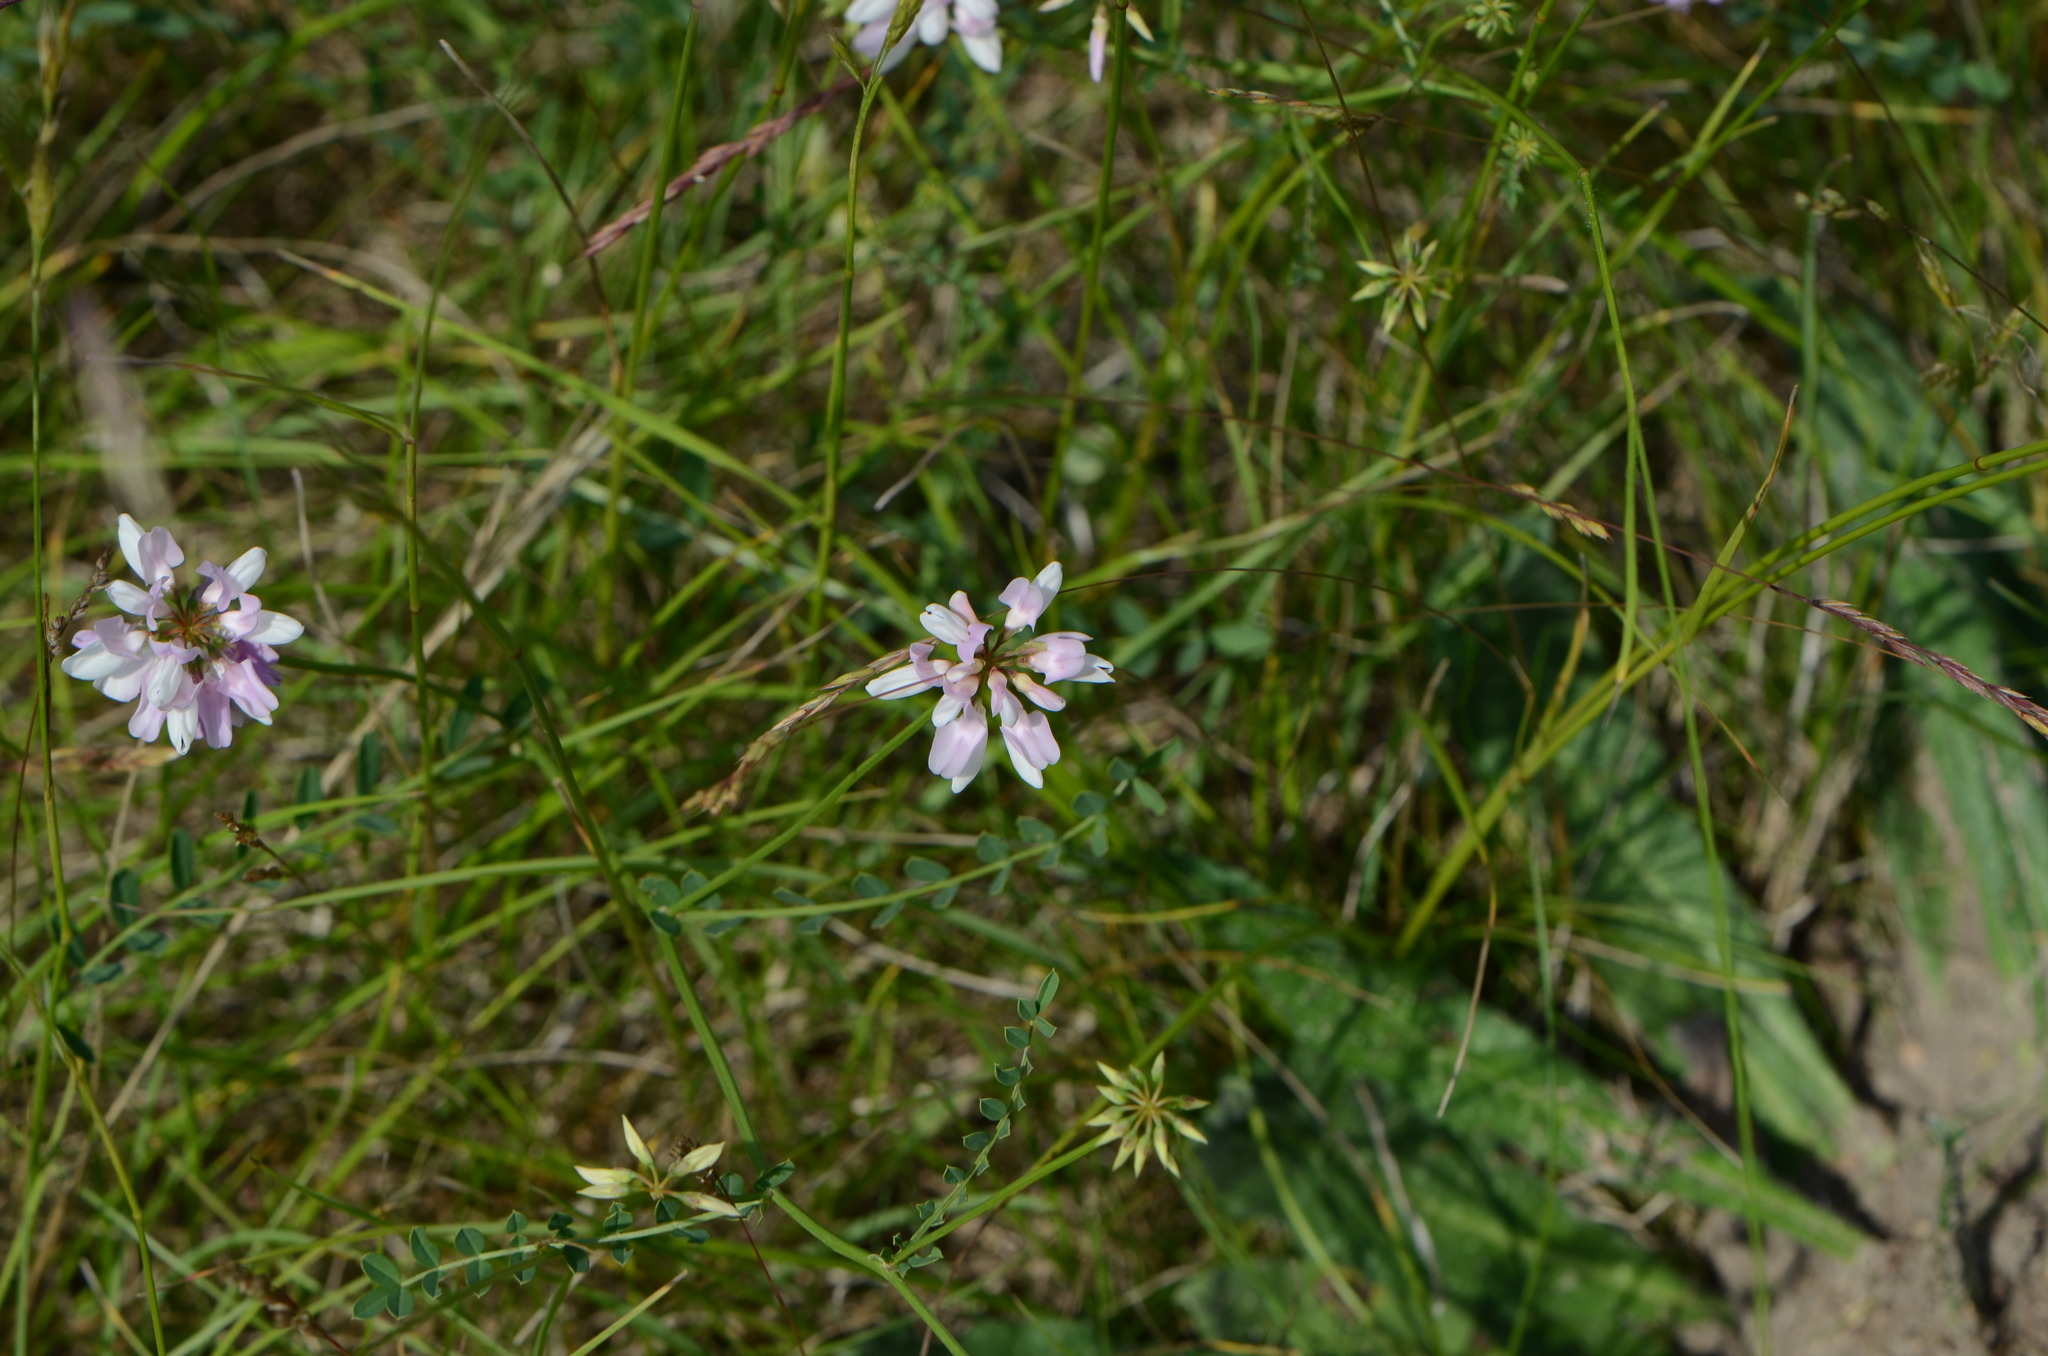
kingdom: Plantae
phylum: Tracheophyta
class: Magnoliopsida
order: Fabales
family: Fabaceae
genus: Coronilla
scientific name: Coronilla varia
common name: Crownvetch
